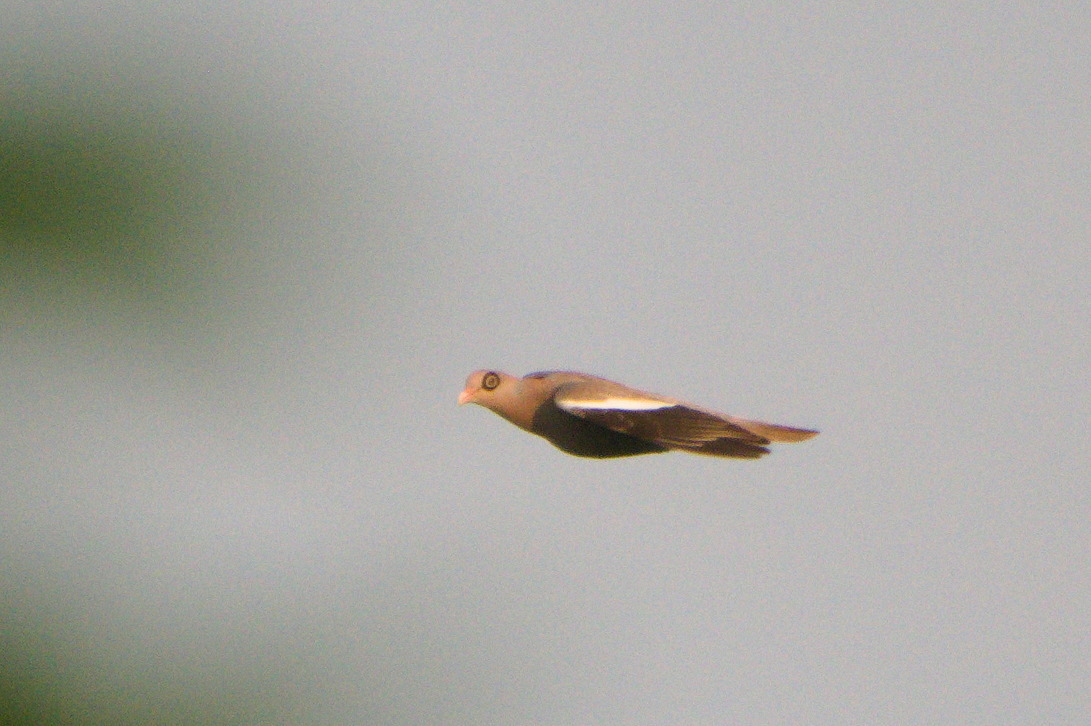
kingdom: Animalia
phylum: Chordata
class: Aves
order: Columbiformes
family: Columbidae
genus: Patagioenas
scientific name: Patagioenas corensis
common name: Bare-eyed pigeon
